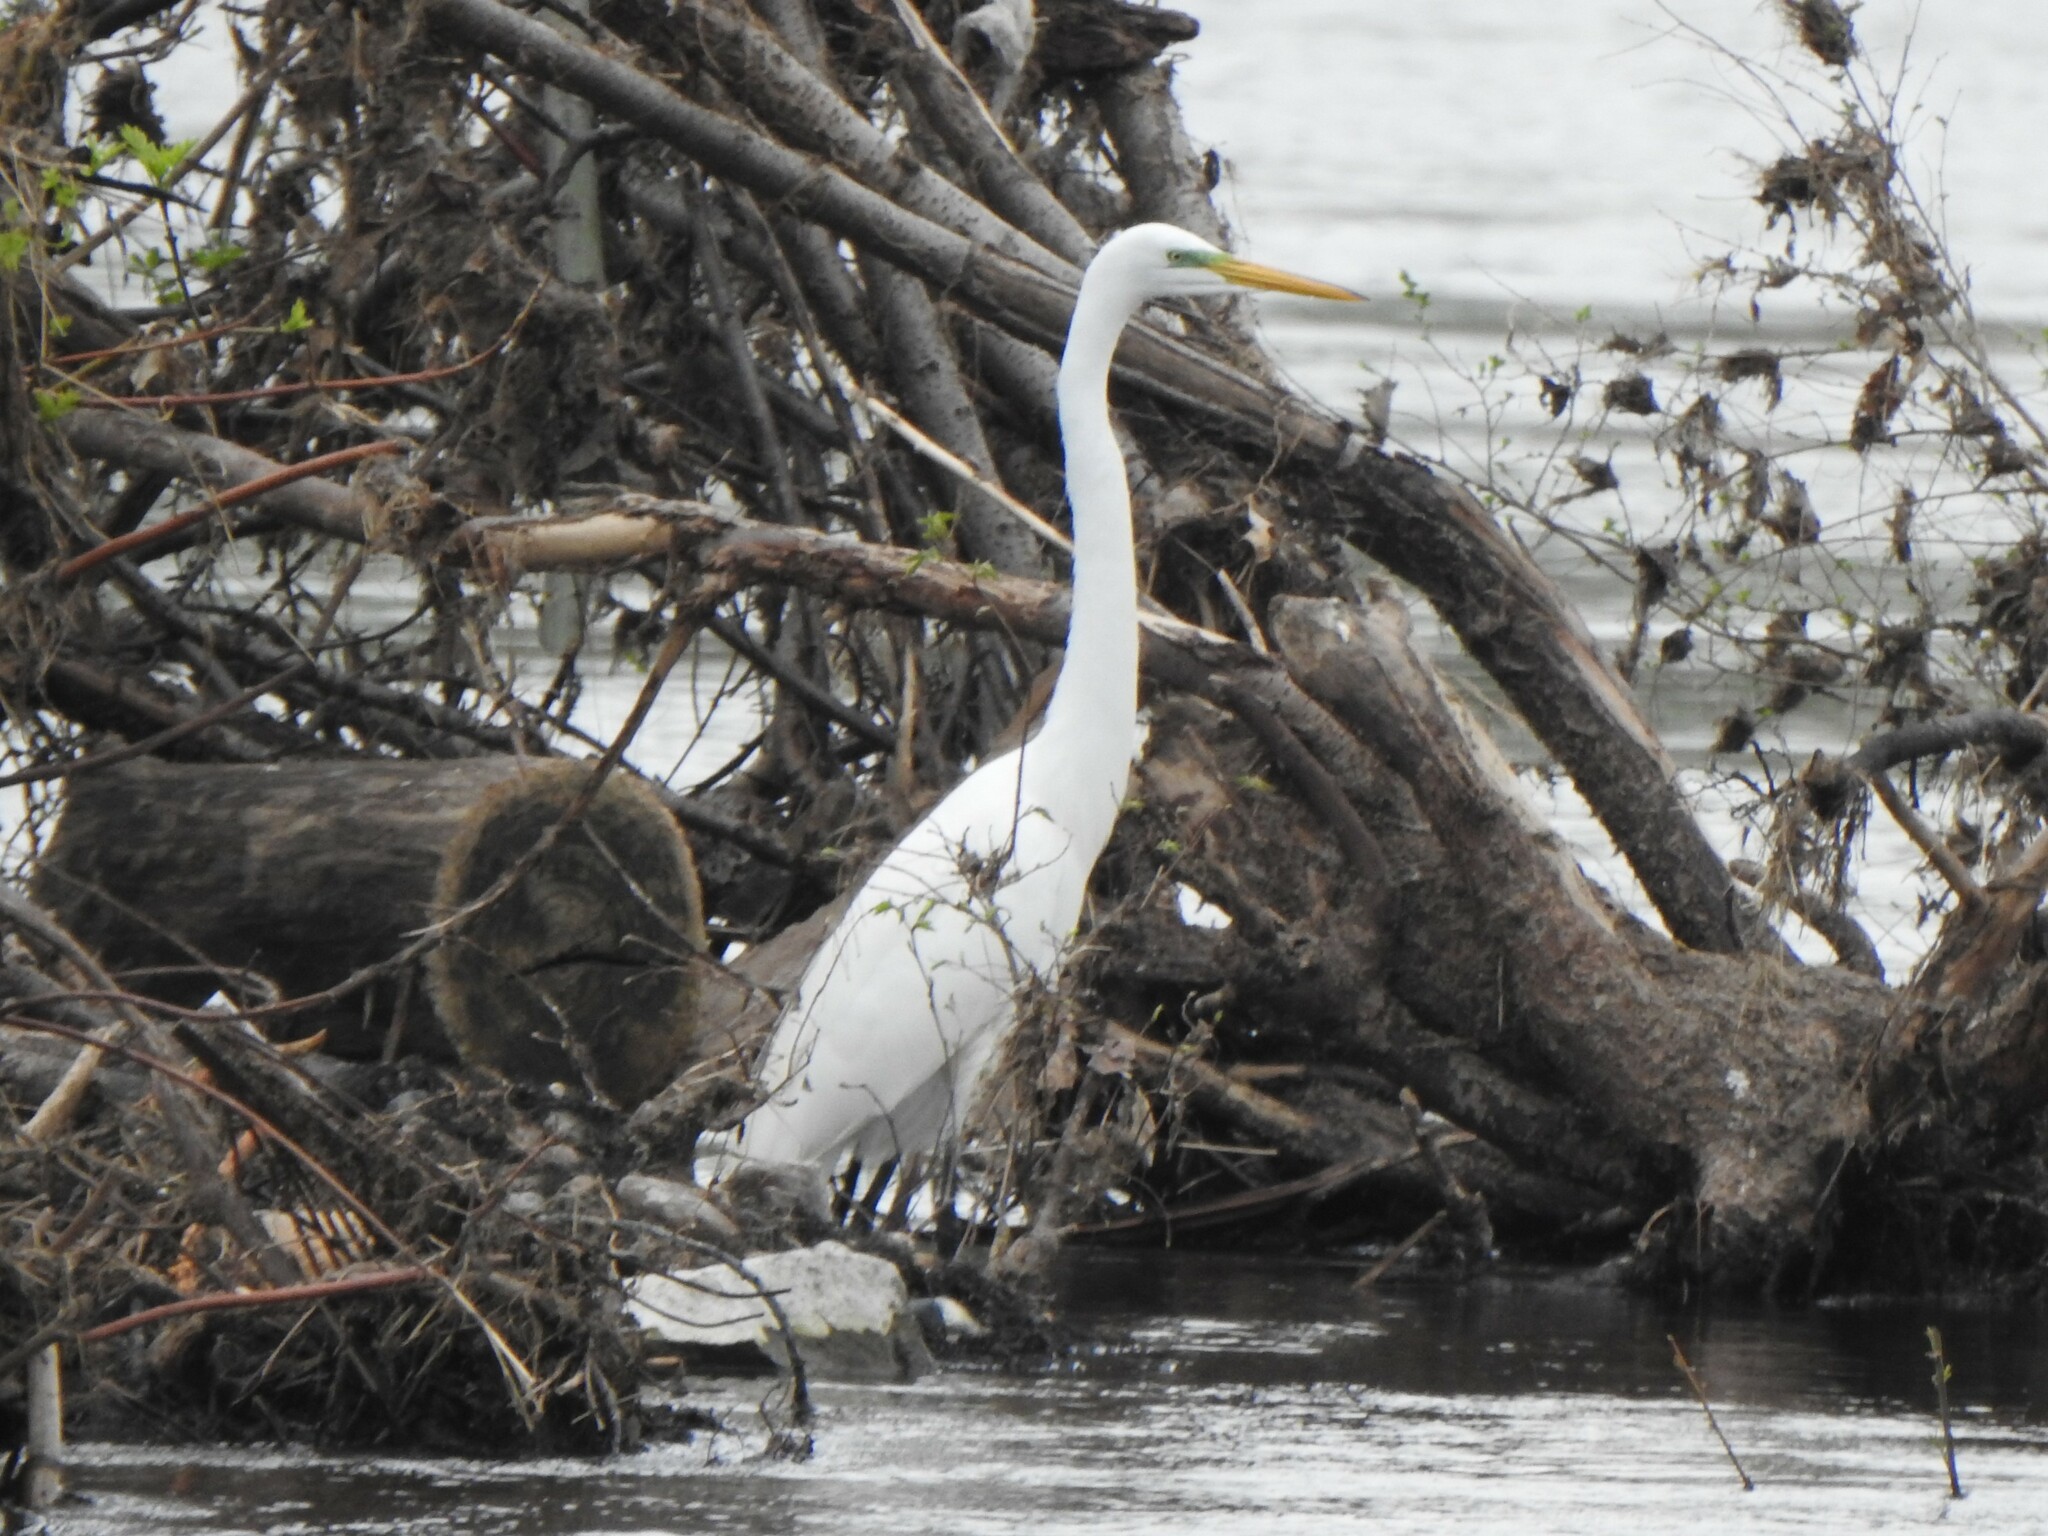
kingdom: Animalia
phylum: Chordata
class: Aves
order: Pelecaniformes
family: Ardeidae
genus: Ardea
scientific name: Ardea alba
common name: Great egret
